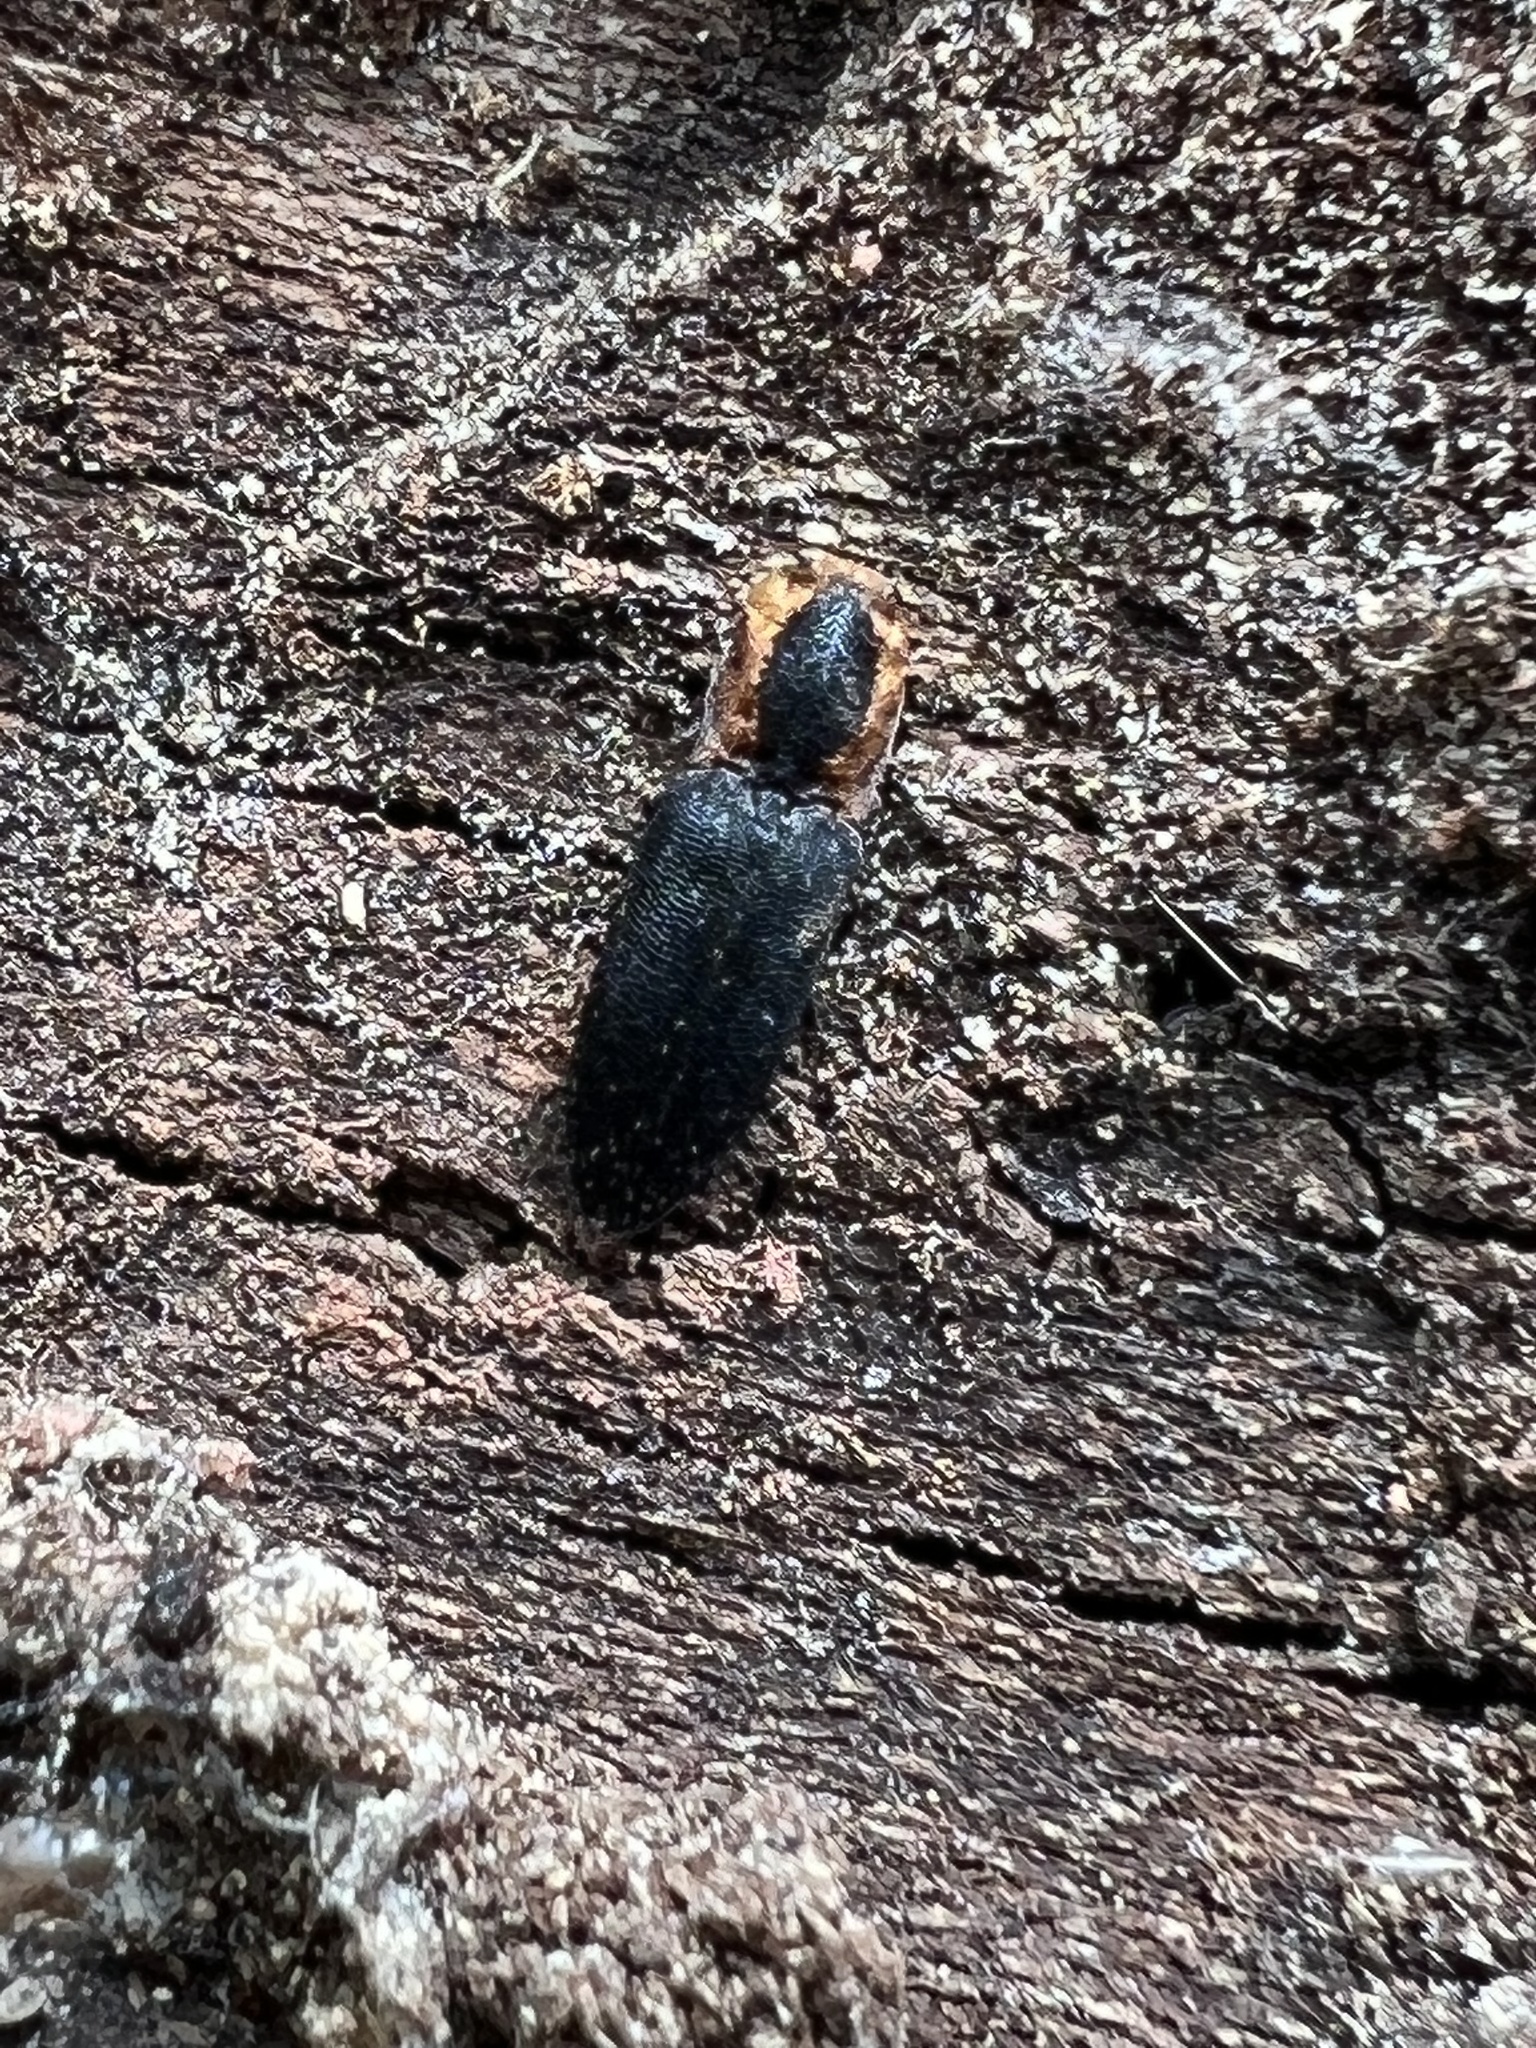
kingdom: Animalia
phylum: Arthropoda
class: Insecta
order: Coleoptera
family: Elateridae
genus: Lacon
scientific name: Lacon discoideus
